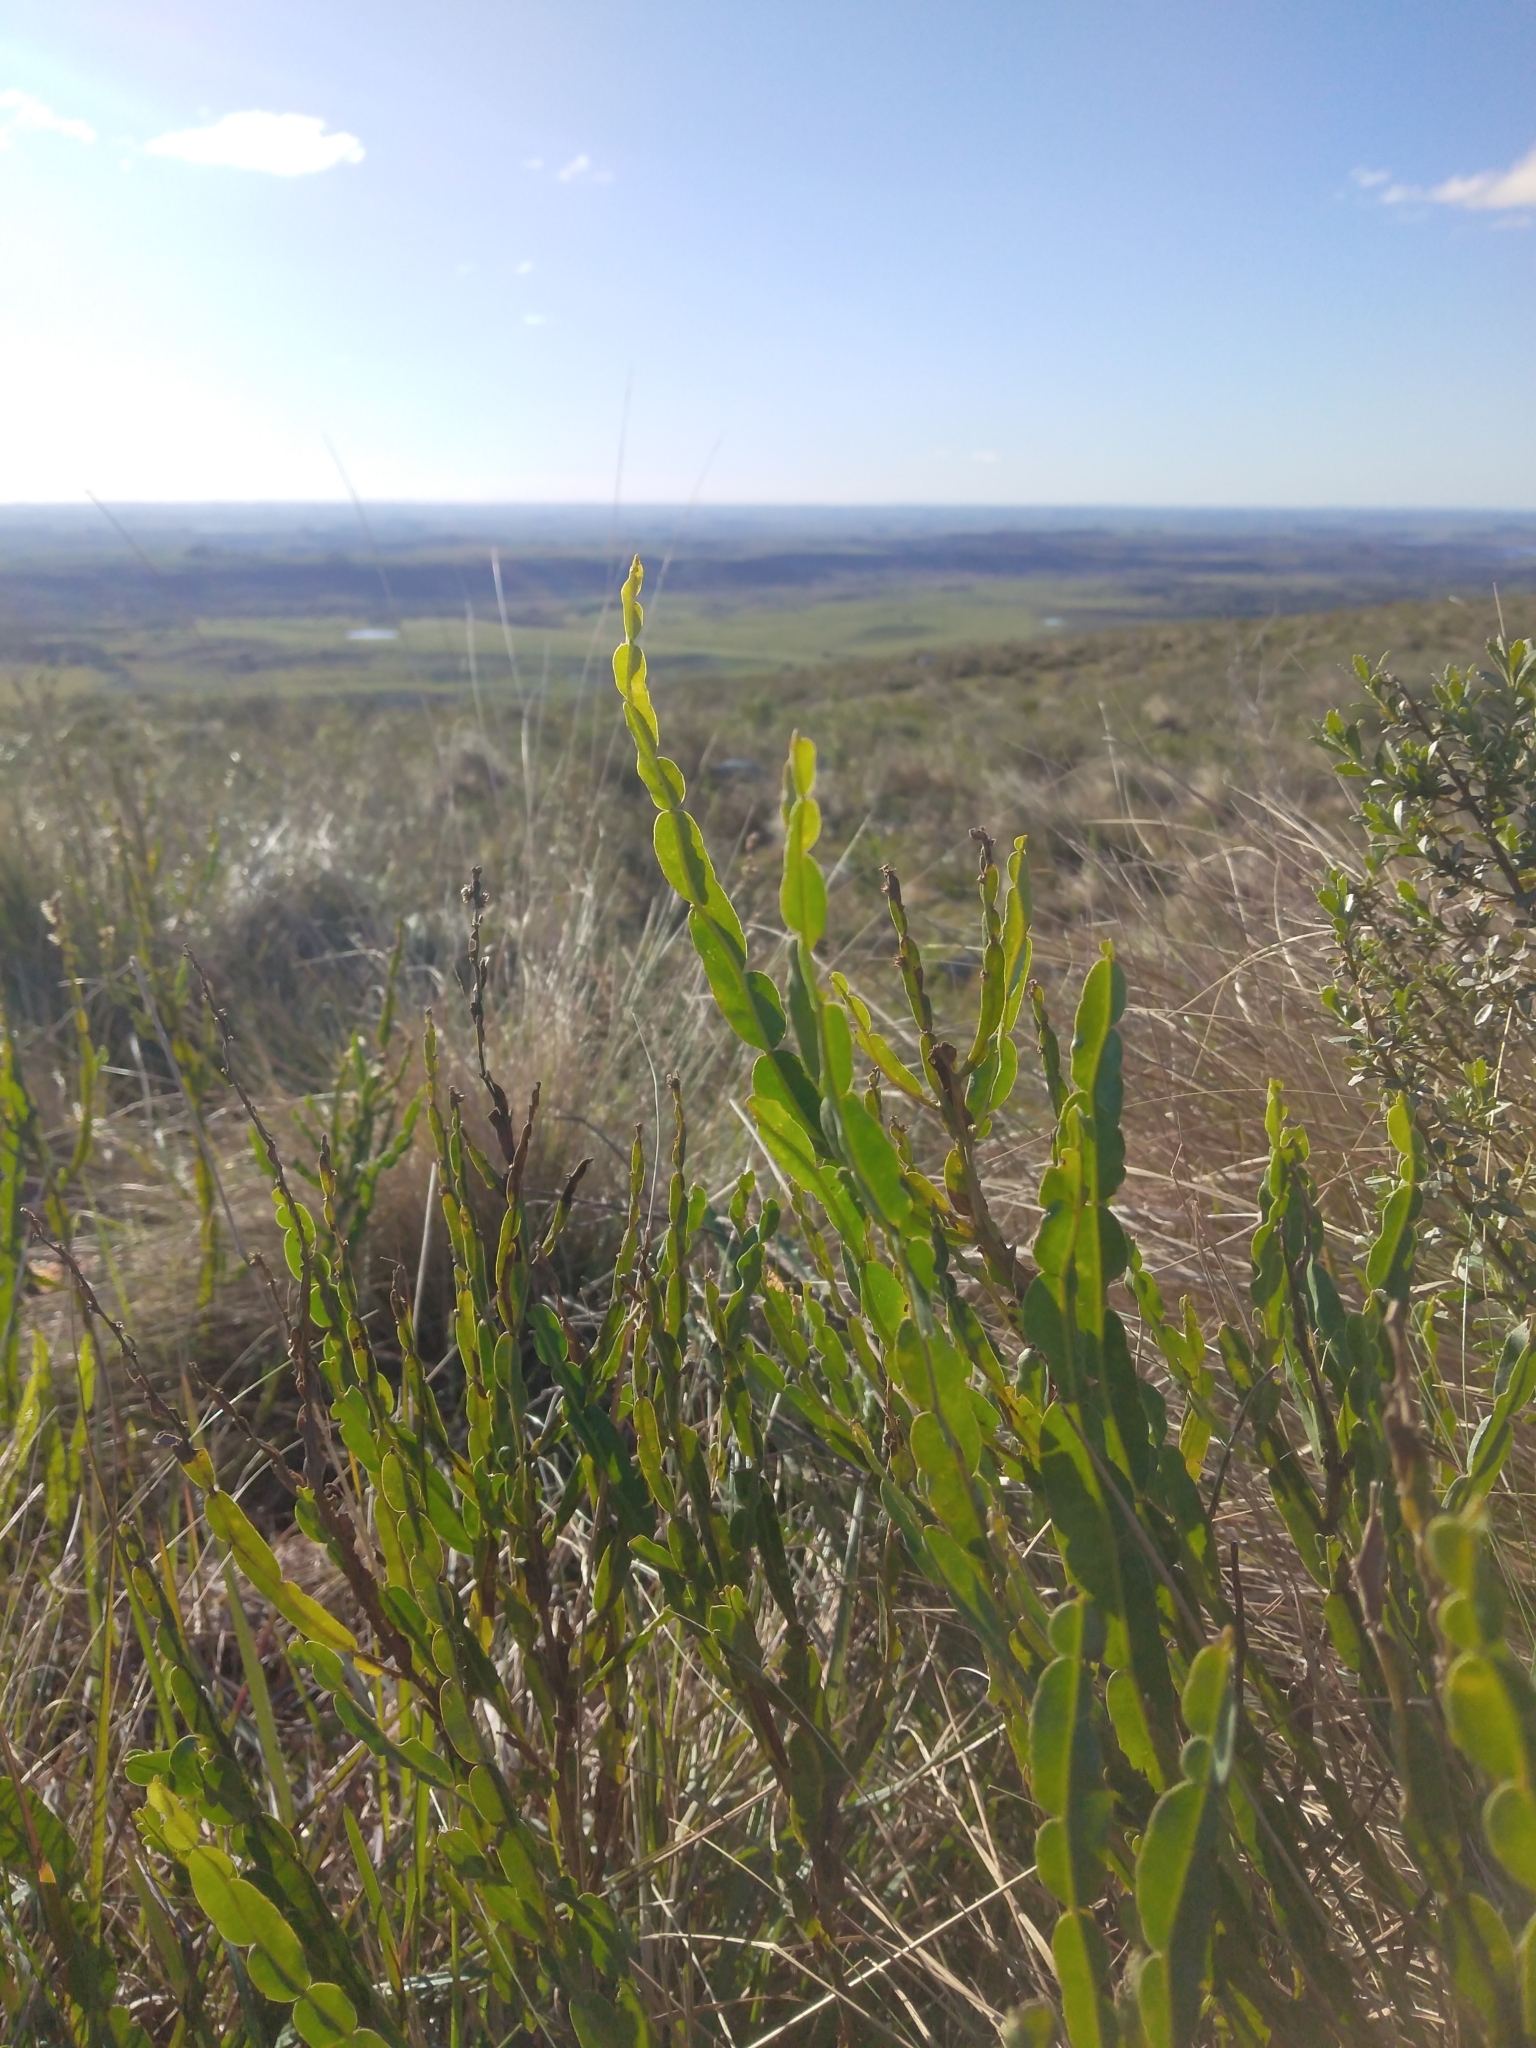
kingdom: Plantae
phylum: Tracheophyta
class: Magnoliopsida
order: Asterales
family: Asteraceae
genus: Baccharis
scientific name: Baccharis trimera
